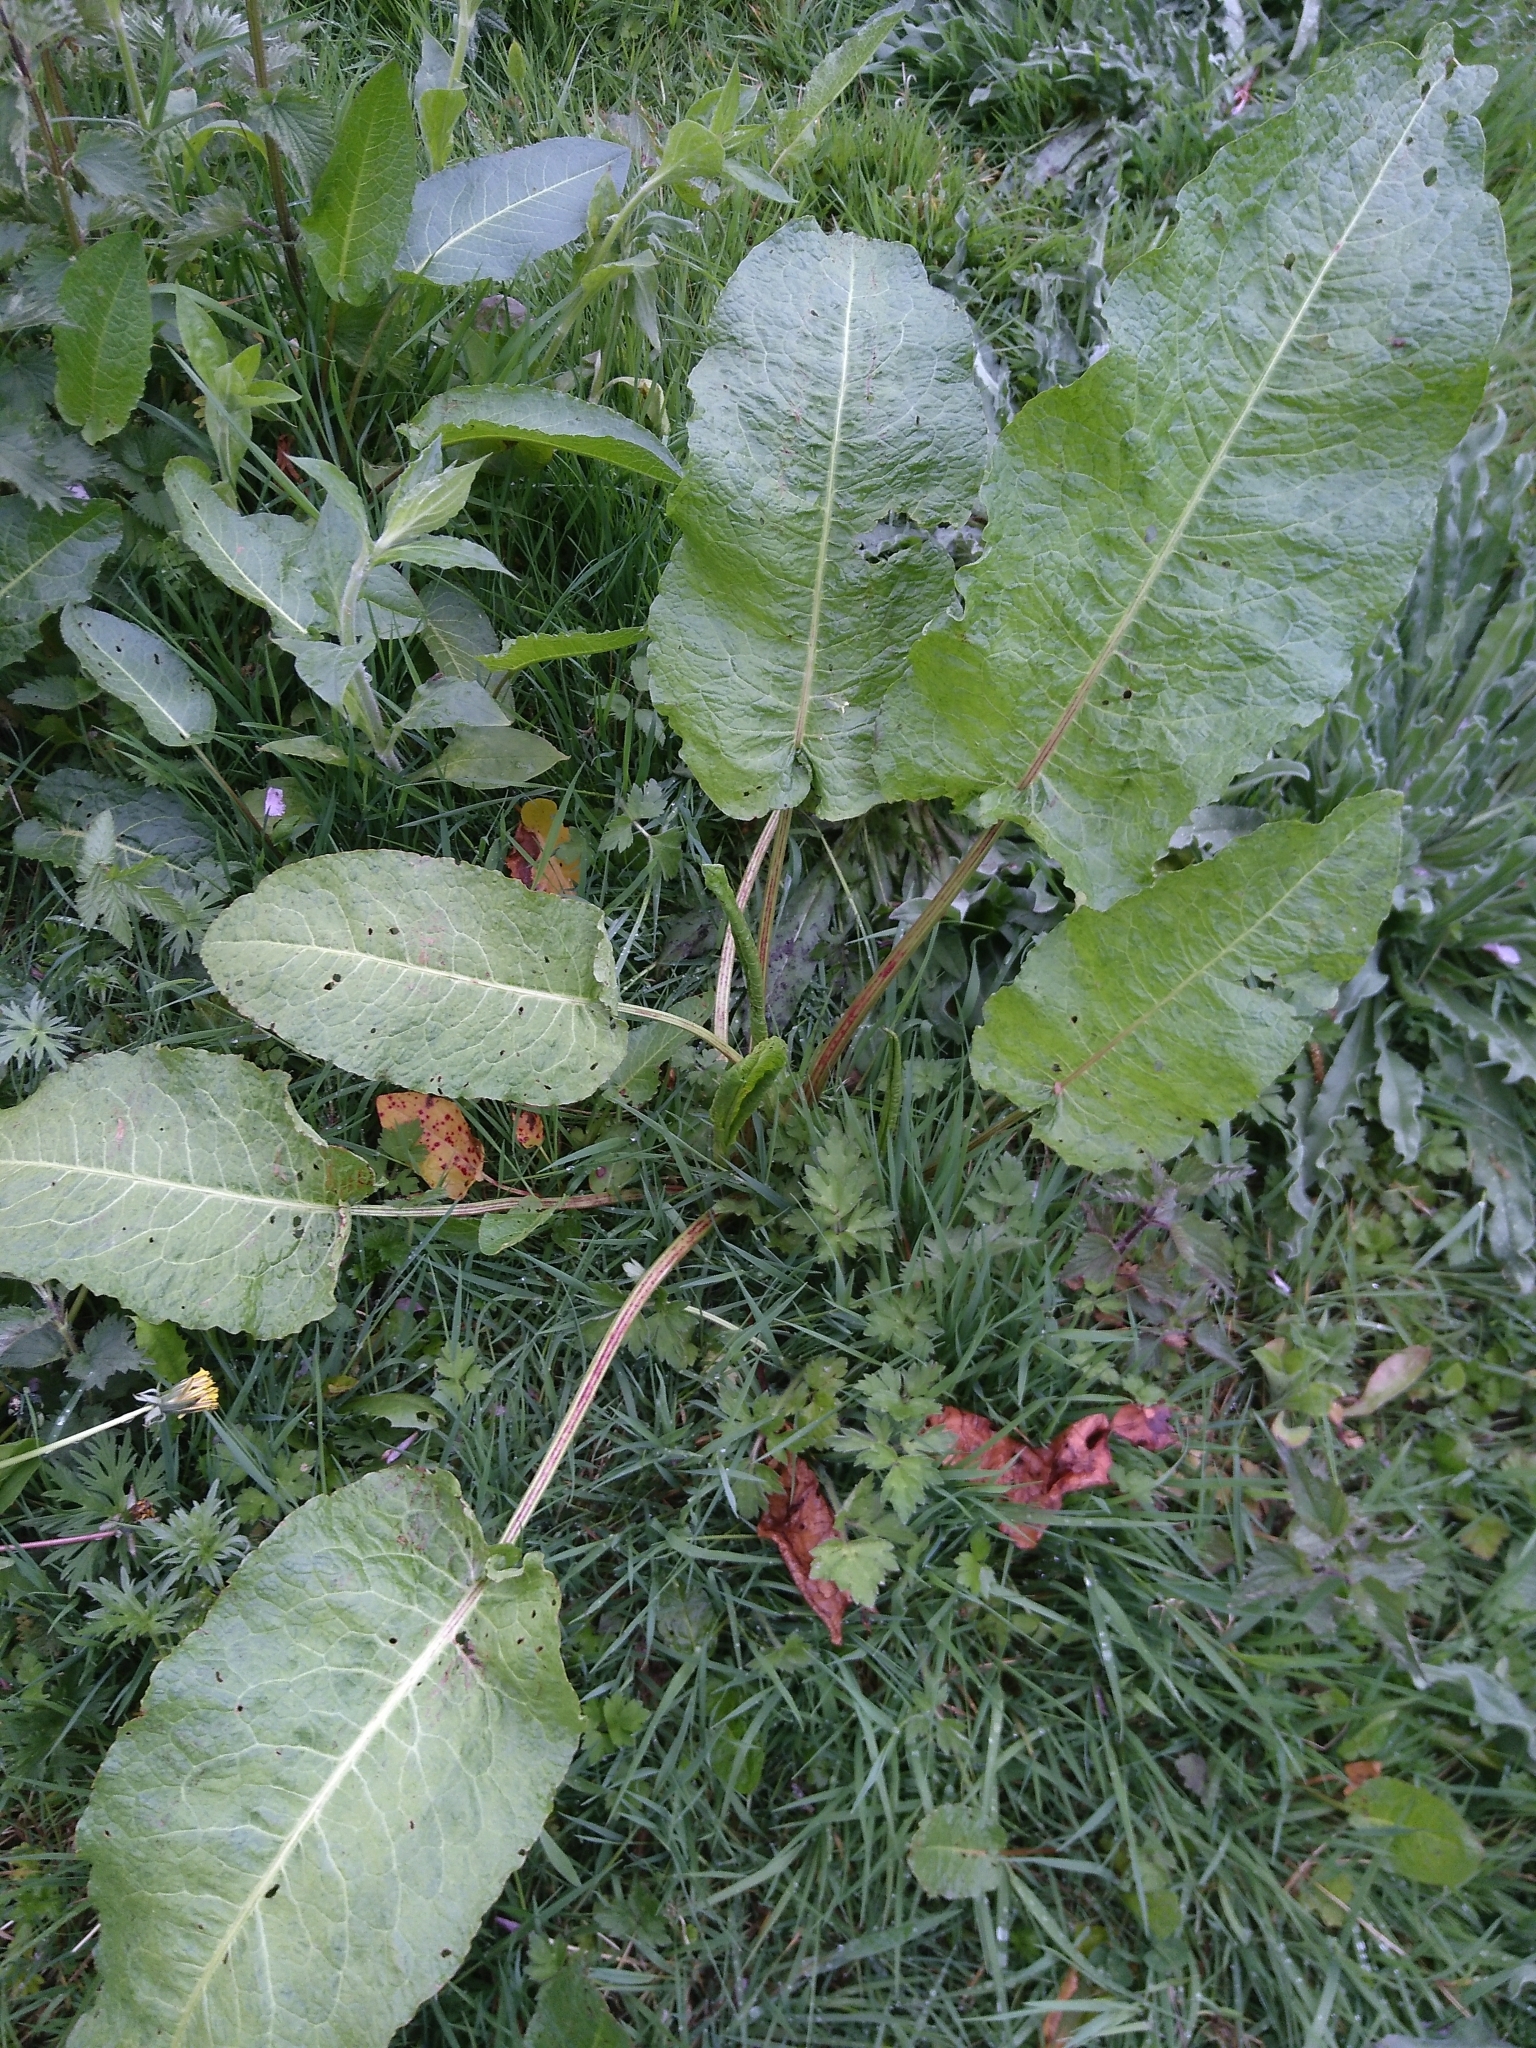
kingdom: Plantae
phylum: Tracheophyta
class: Magnoliopsida
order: Caryophyllales
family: Polygonaceae
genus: Rumex
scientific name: Rumex obtusifolius
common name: Bitter dock
